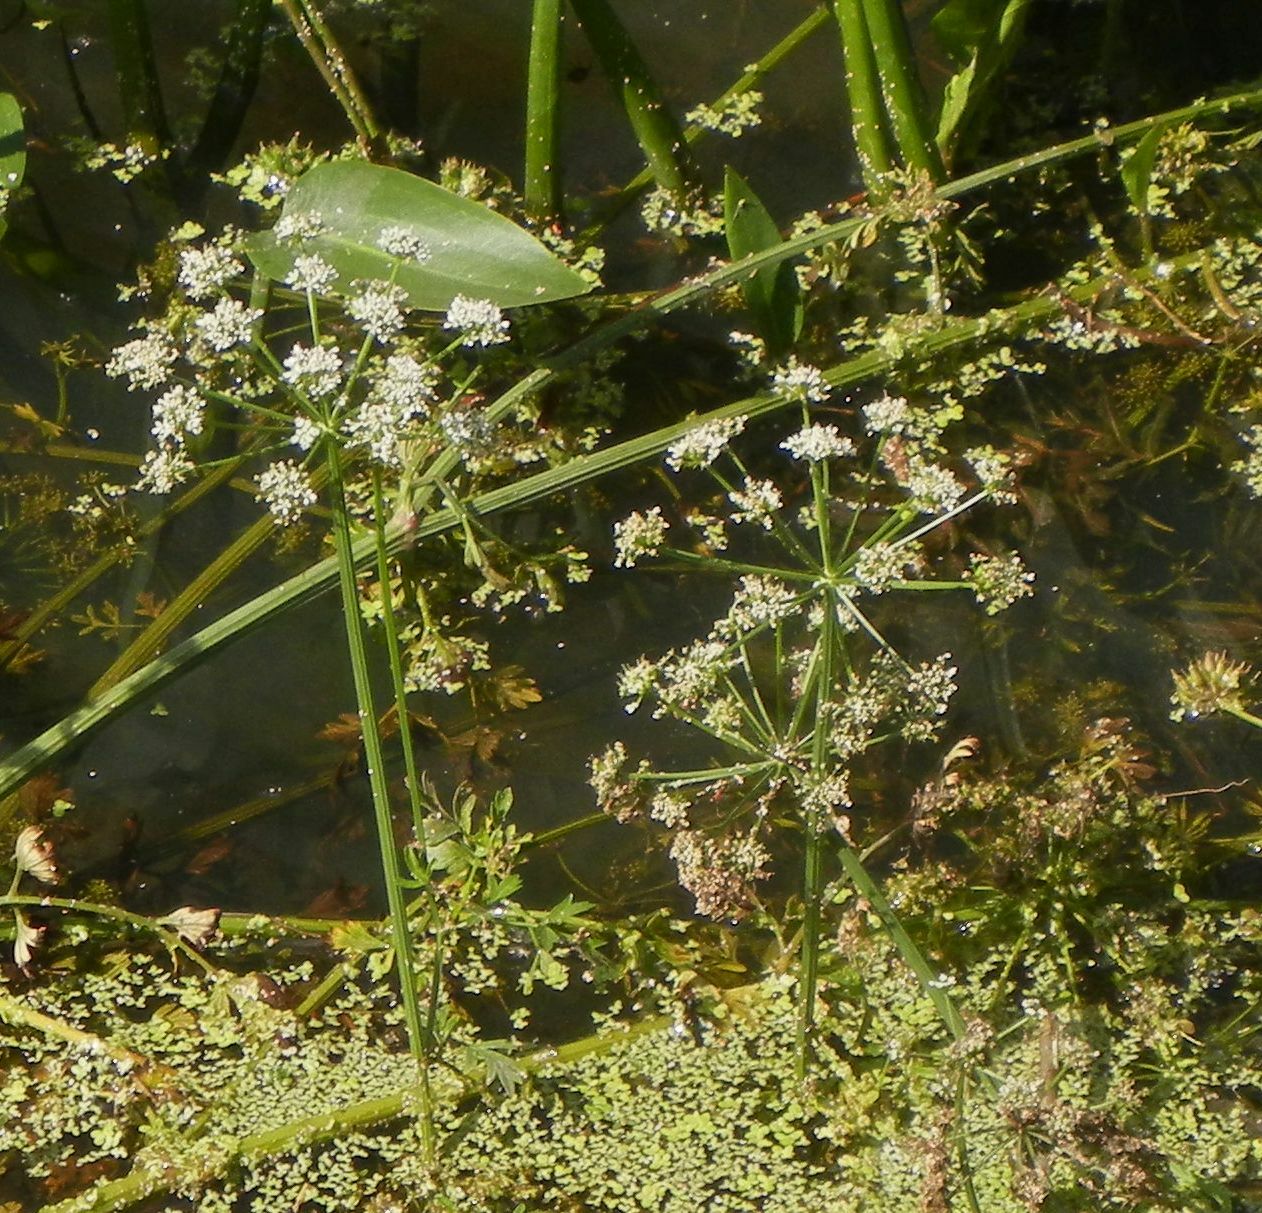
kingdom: Plantae
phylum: Tracheophyta
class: Magnoliopsida
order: Apiales
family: Apiaceae
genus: Oenanthe
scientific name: Oenanthe crocata
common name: Hemlock water-dropwort
